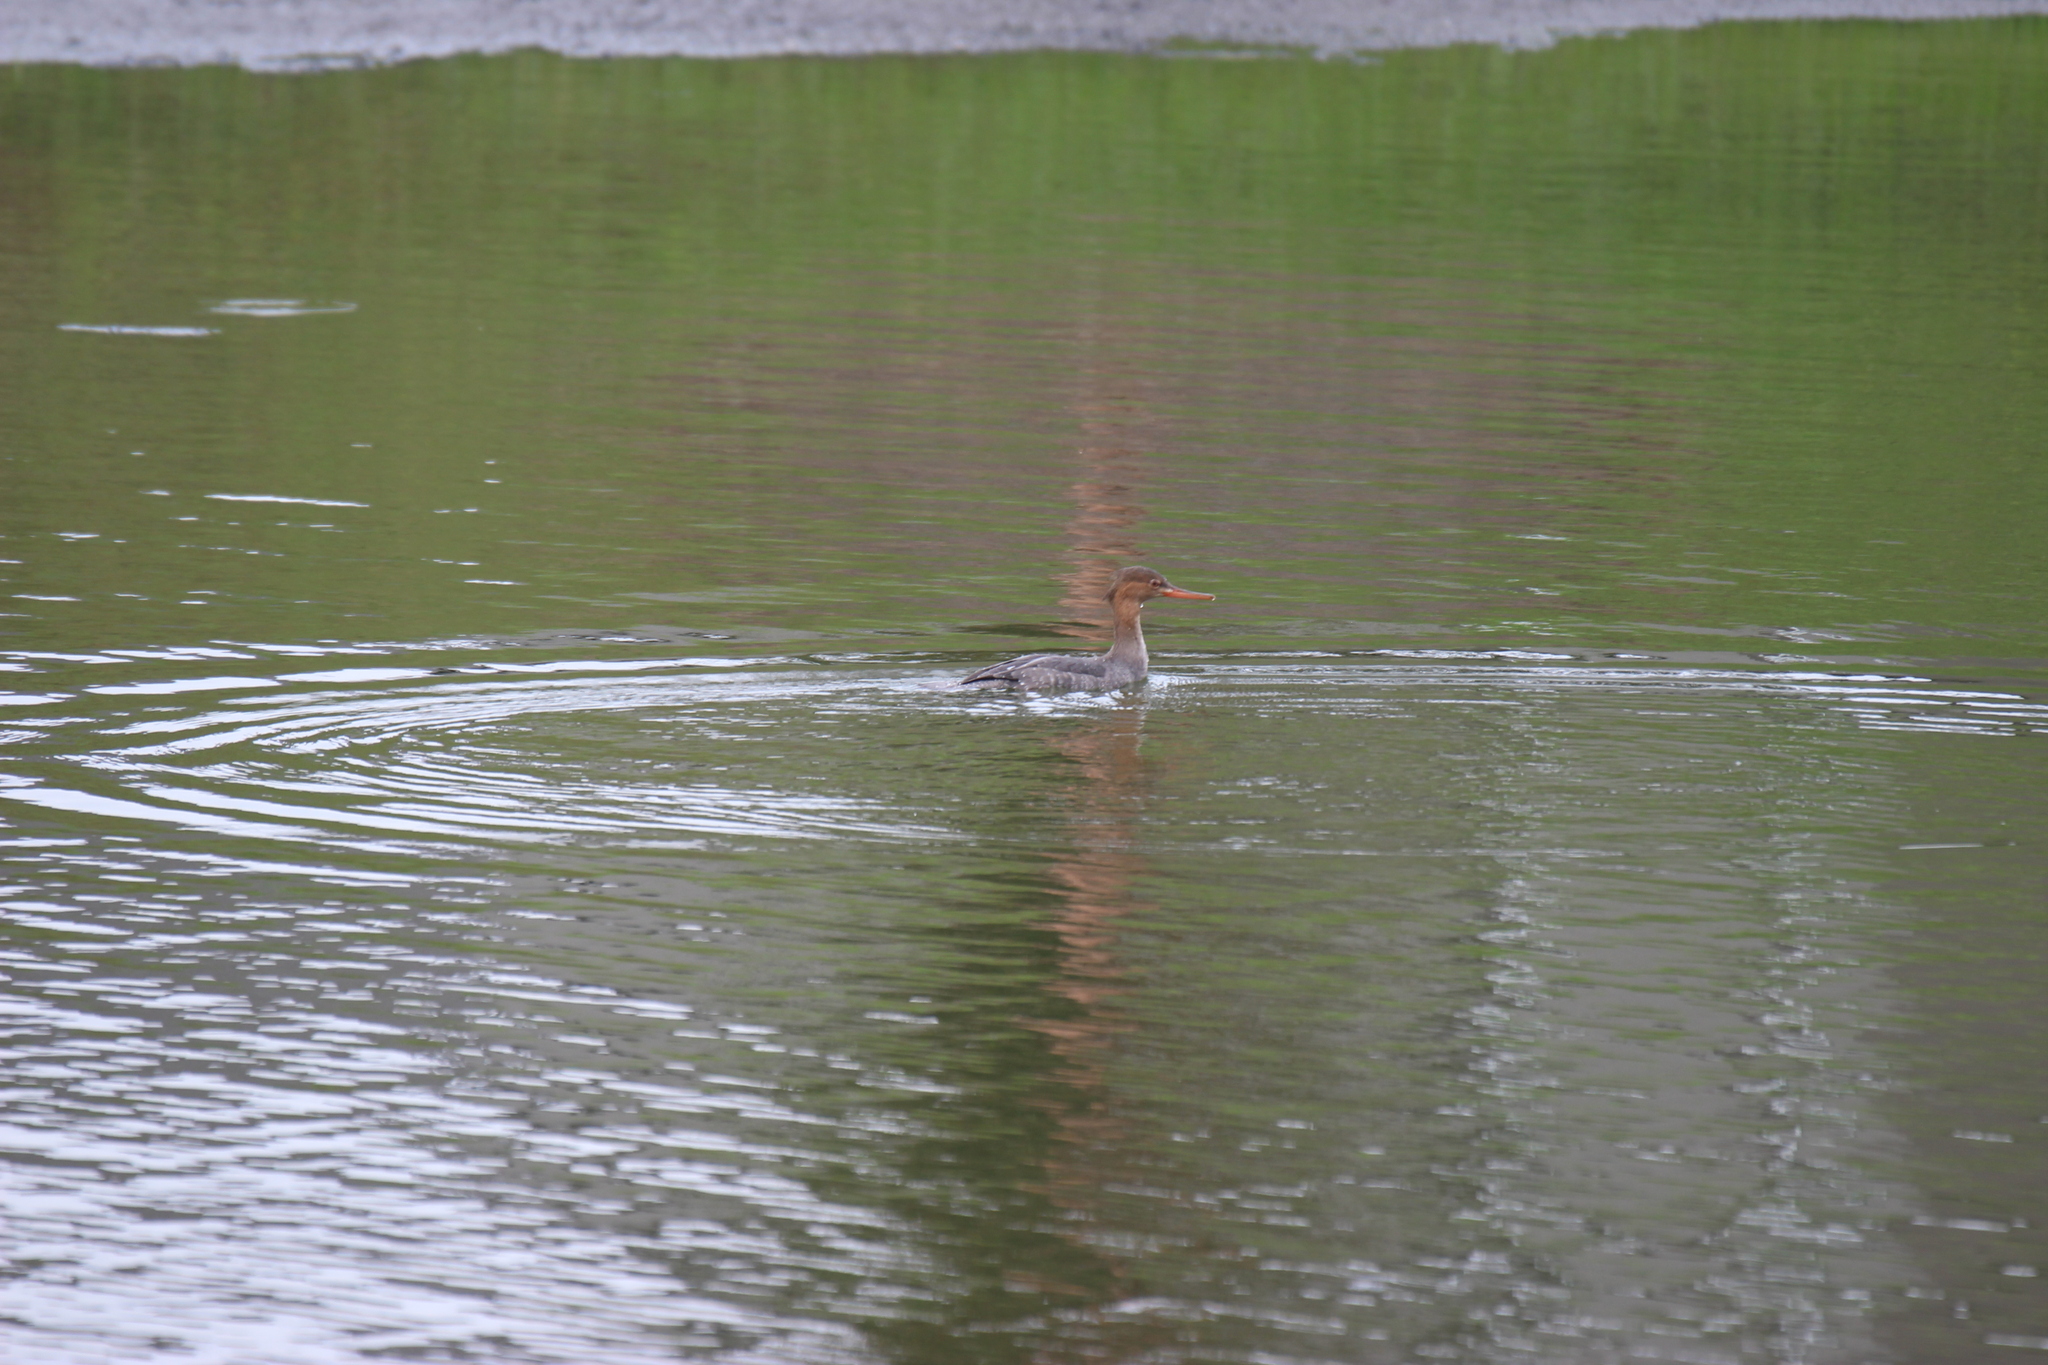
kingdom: Animalia
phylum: Chordata
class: Aves
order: Anseriformes
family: Anatidae
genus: Mergus
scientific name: Mergus serrator
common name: Red-breasted merganser
